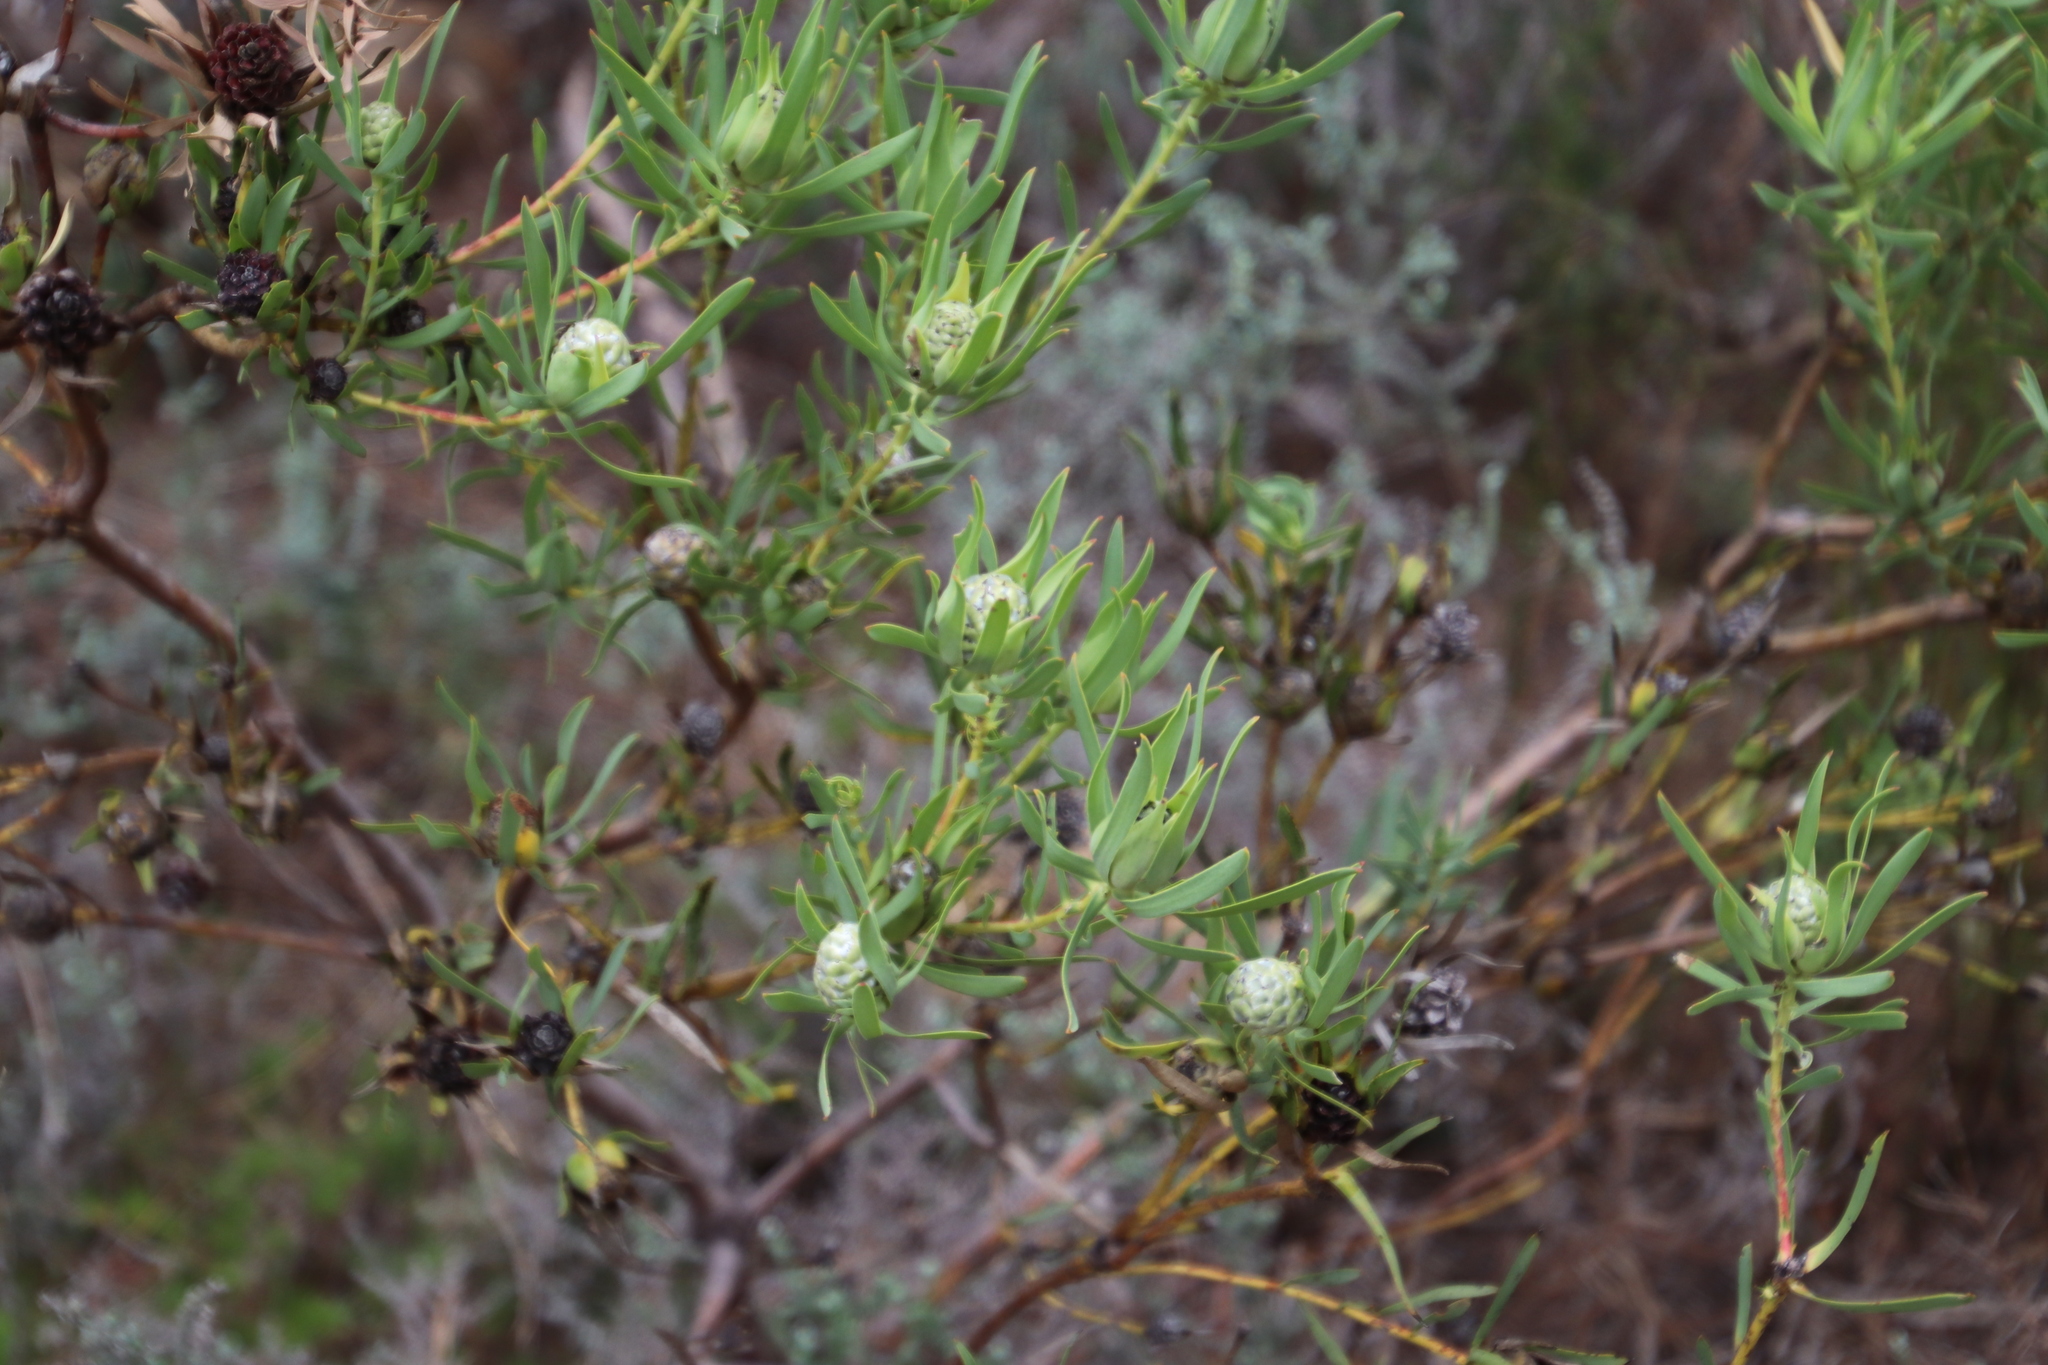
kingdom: Plantae
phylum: Tracheophyta
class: Magnoliopsida
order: Proteales
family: Proteaceae
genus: Leucadendron
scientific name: Leucadendron salignum
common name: Common sunshine conebush
